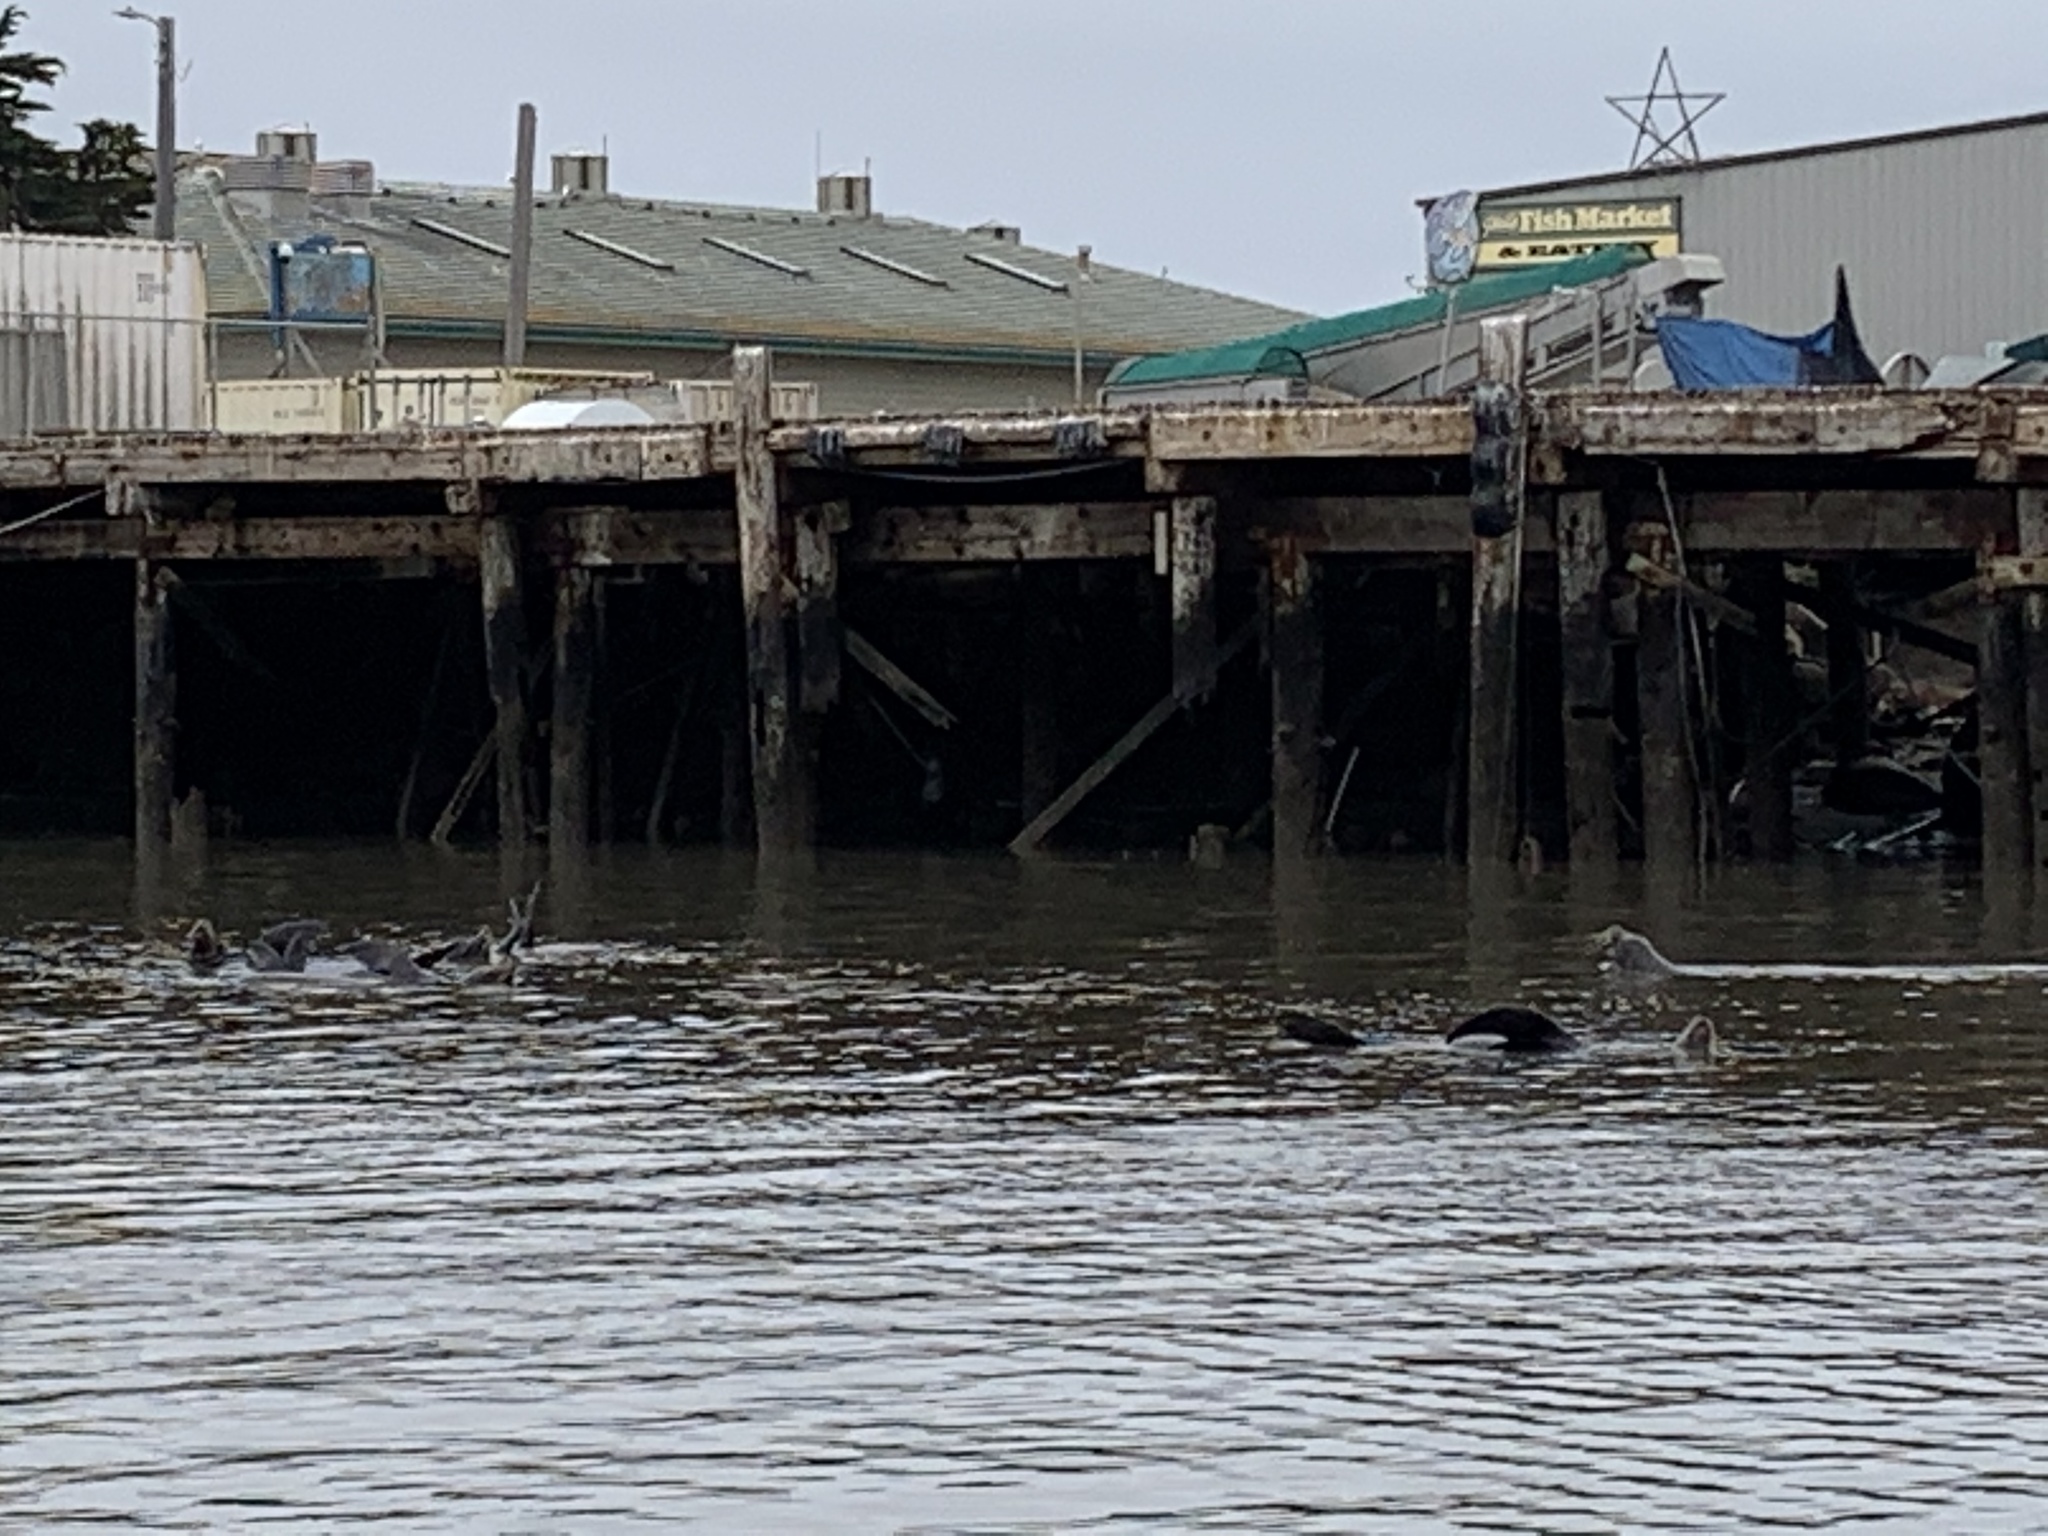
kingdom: Animalia
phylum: Chordata
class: Mammalia
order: Carnivora
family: Otariidae
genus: Zalophus
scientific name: Zalophus californianus
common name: California sea lion
